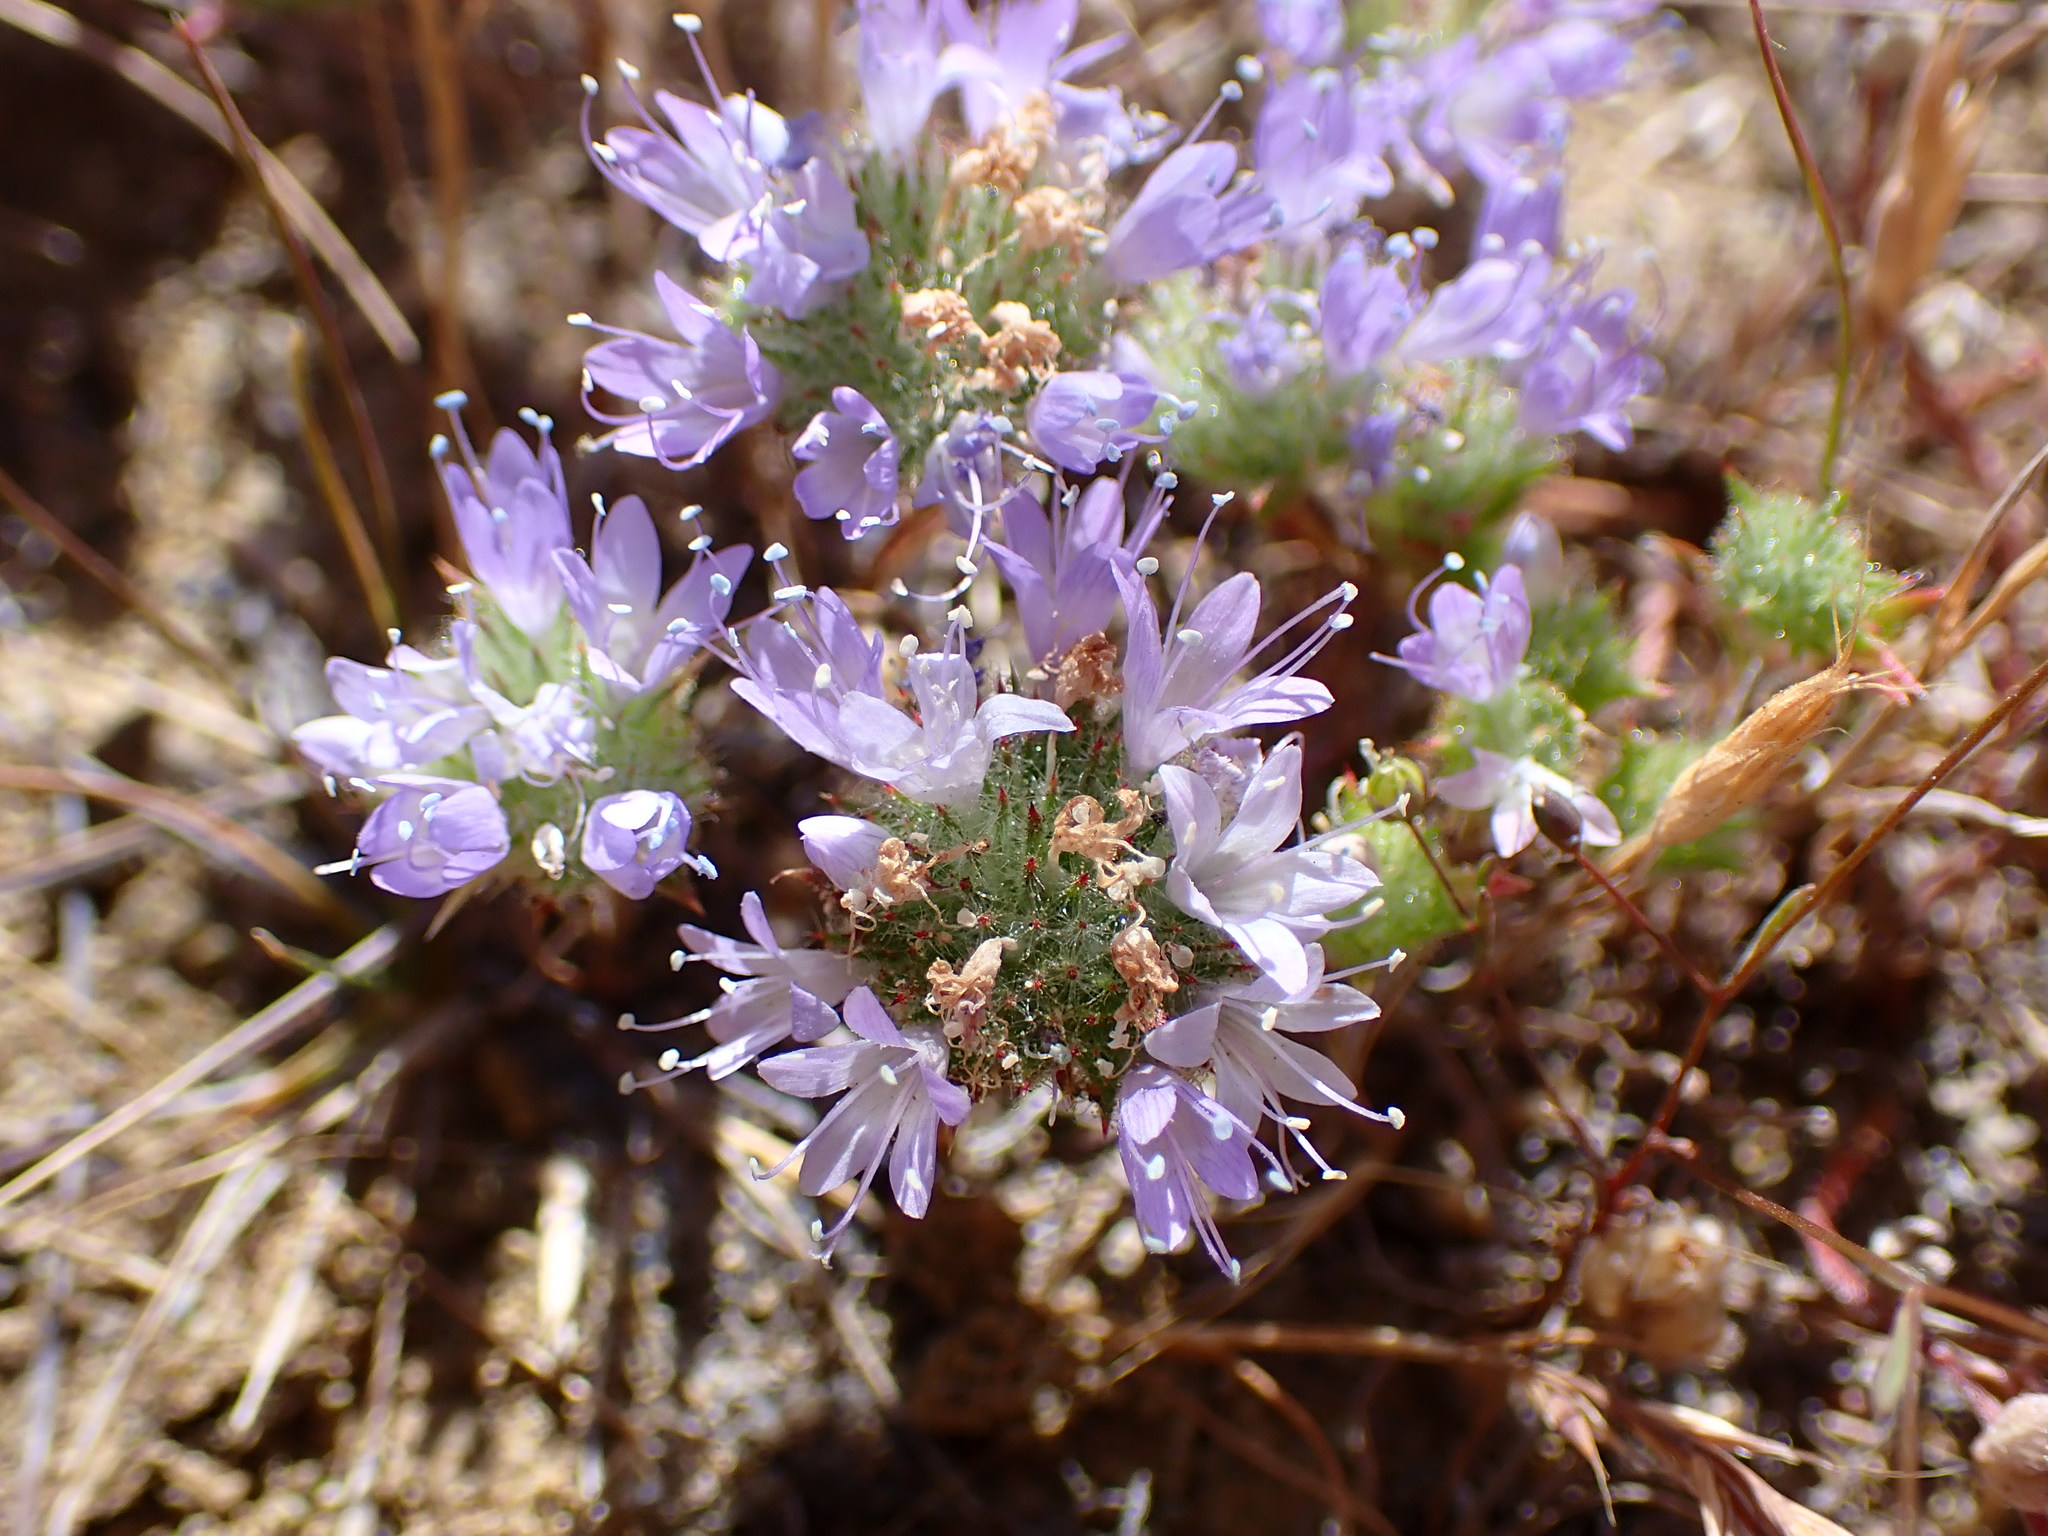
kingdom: Plantae
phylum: Tracheophyta
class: Magnoliopsida
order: Ericales
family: Polemoniaceae
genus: Navarretia
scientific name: Navarretia heterodoxa
